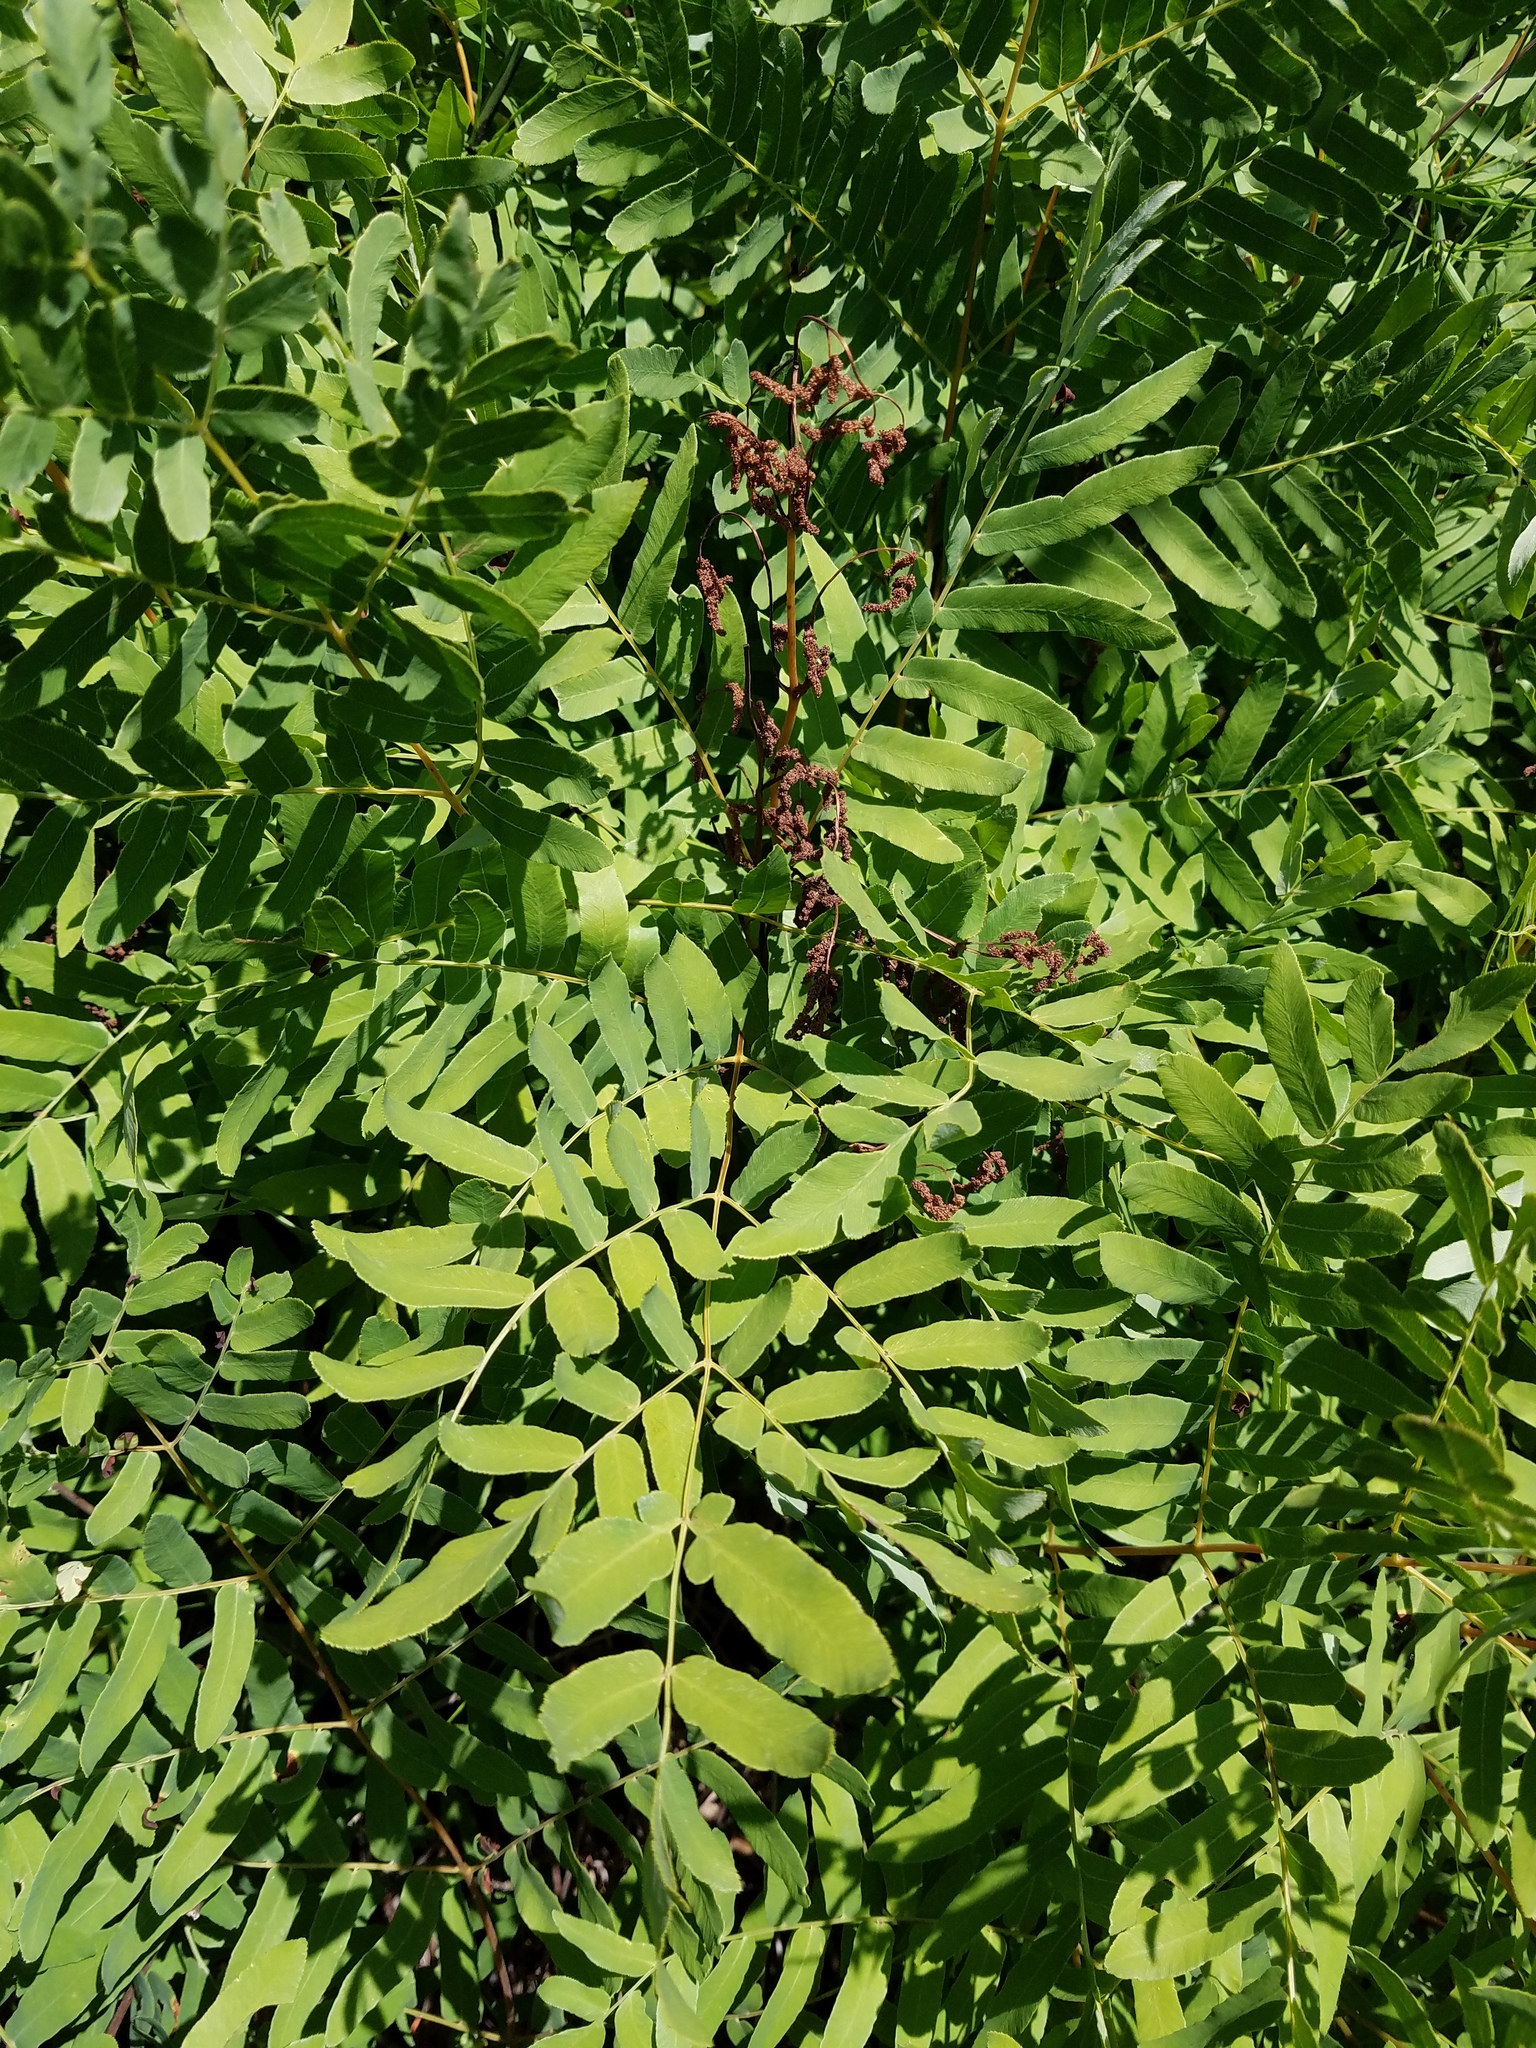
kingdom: Plantae
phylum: Tracheophyta
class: Polypodiopsida
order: Osmundales
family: Osmundaceae
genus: Osmunda
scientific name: Osmunda spectabilis
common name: American royal fern
